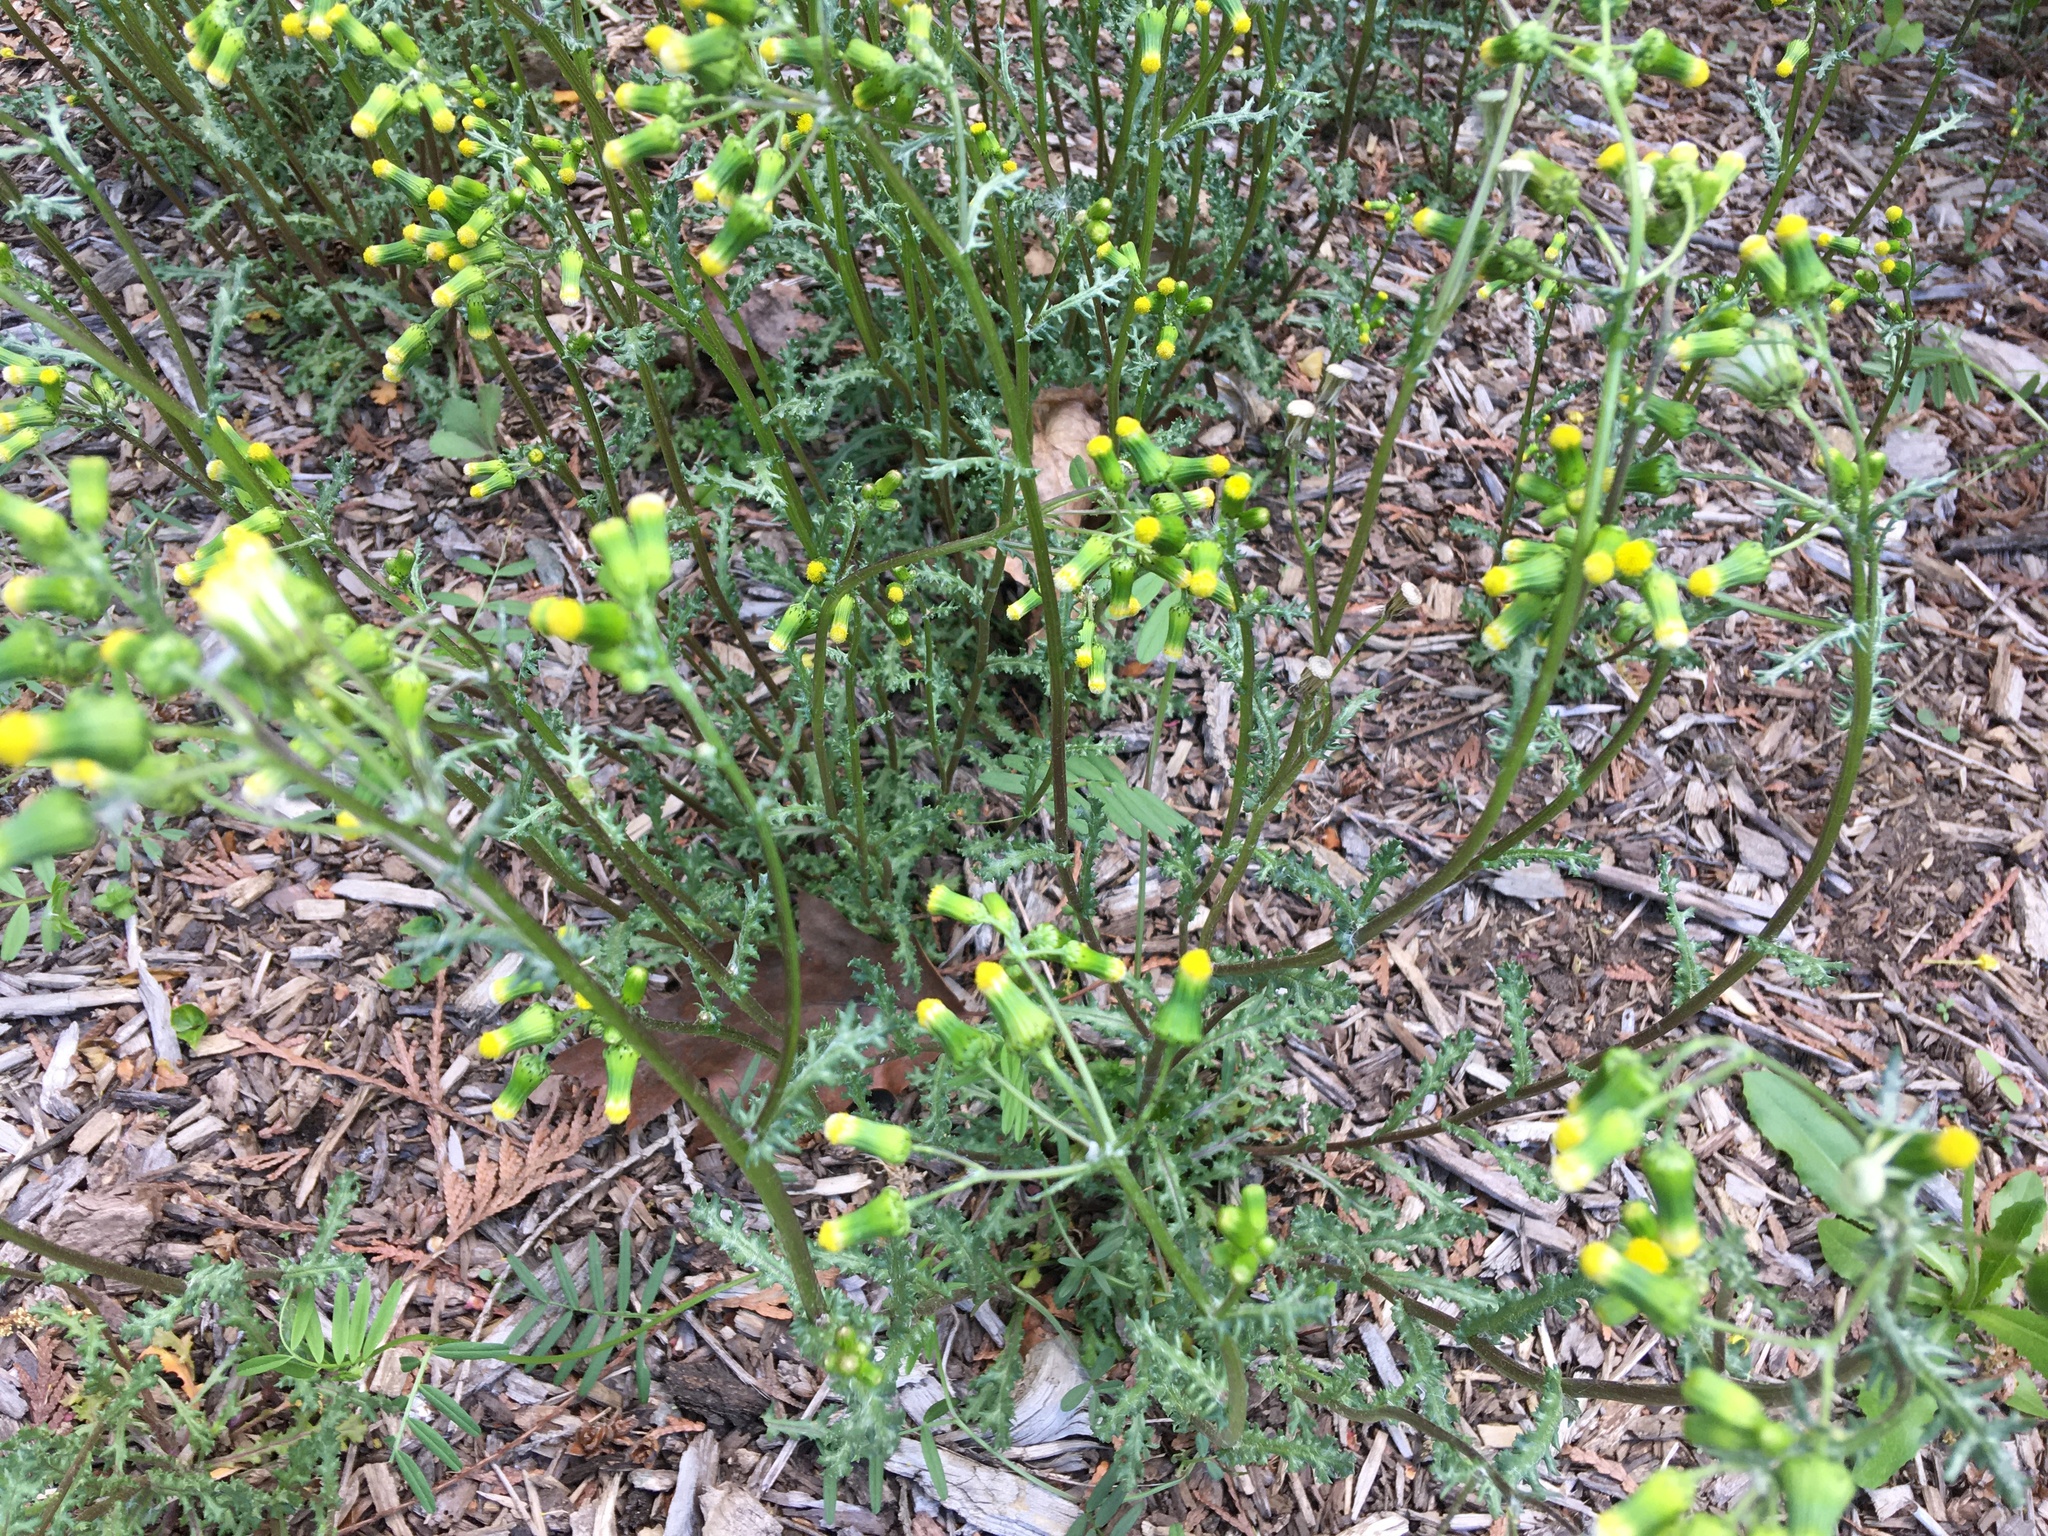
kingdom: Plantae
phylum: Tracheophyta
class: Magnoliopsida
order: Asterales
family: Asteraceae
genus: Senecio
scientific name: Senecio vulgaris
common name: Old-man-in-the-spring
